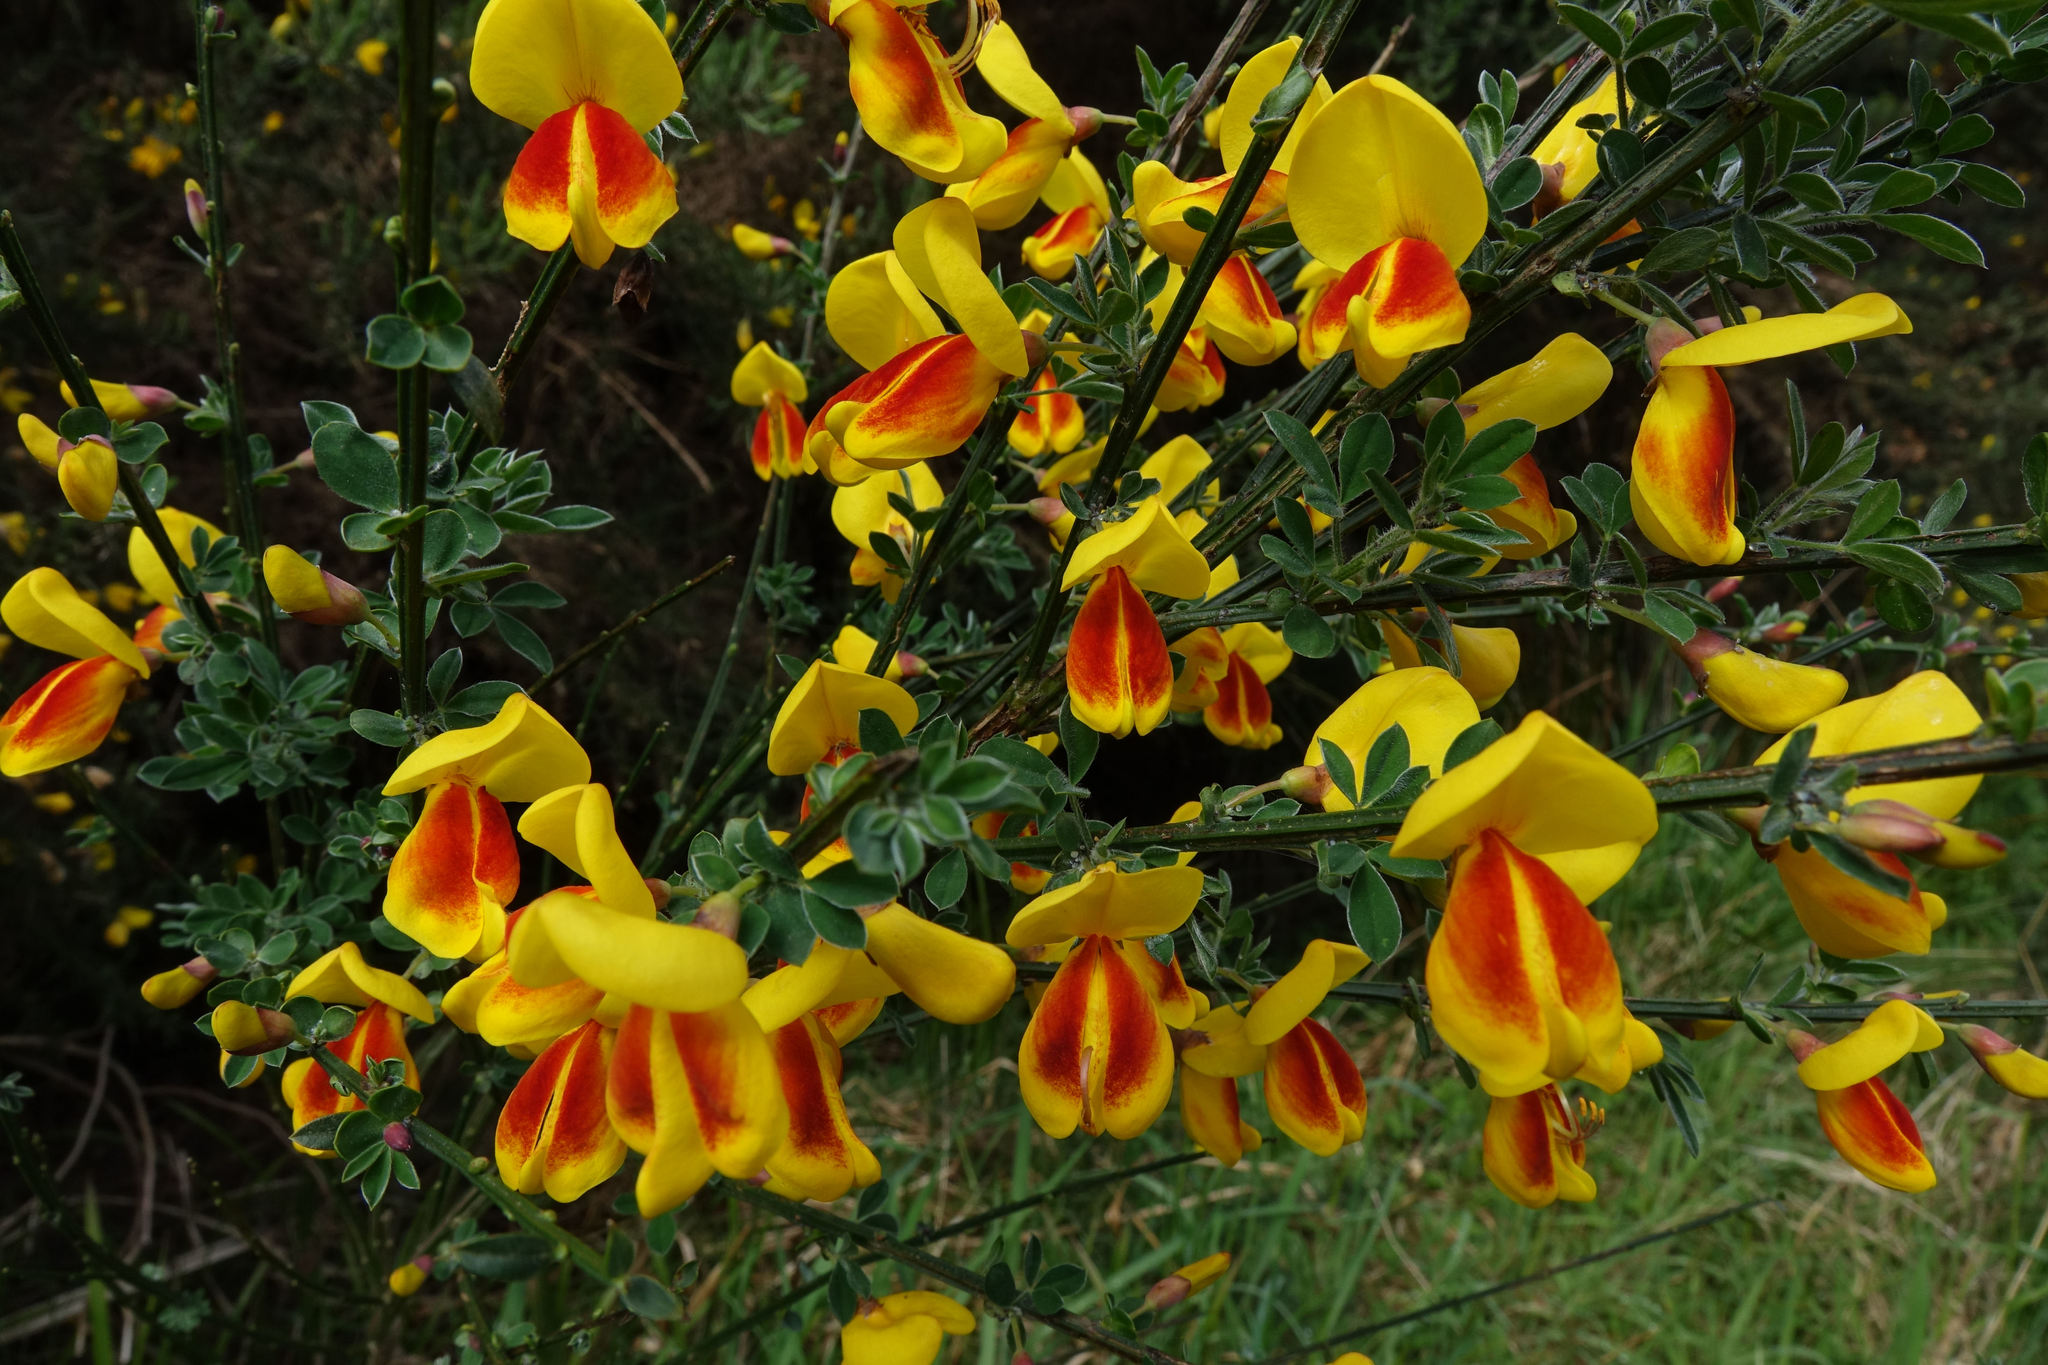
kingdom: Plantae
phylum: Tracheophyta
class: Magnoliopsida
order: Fabales
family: Fabaceae
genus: Cytisus
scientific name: Cytisus scoparius
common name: Scotch broom
